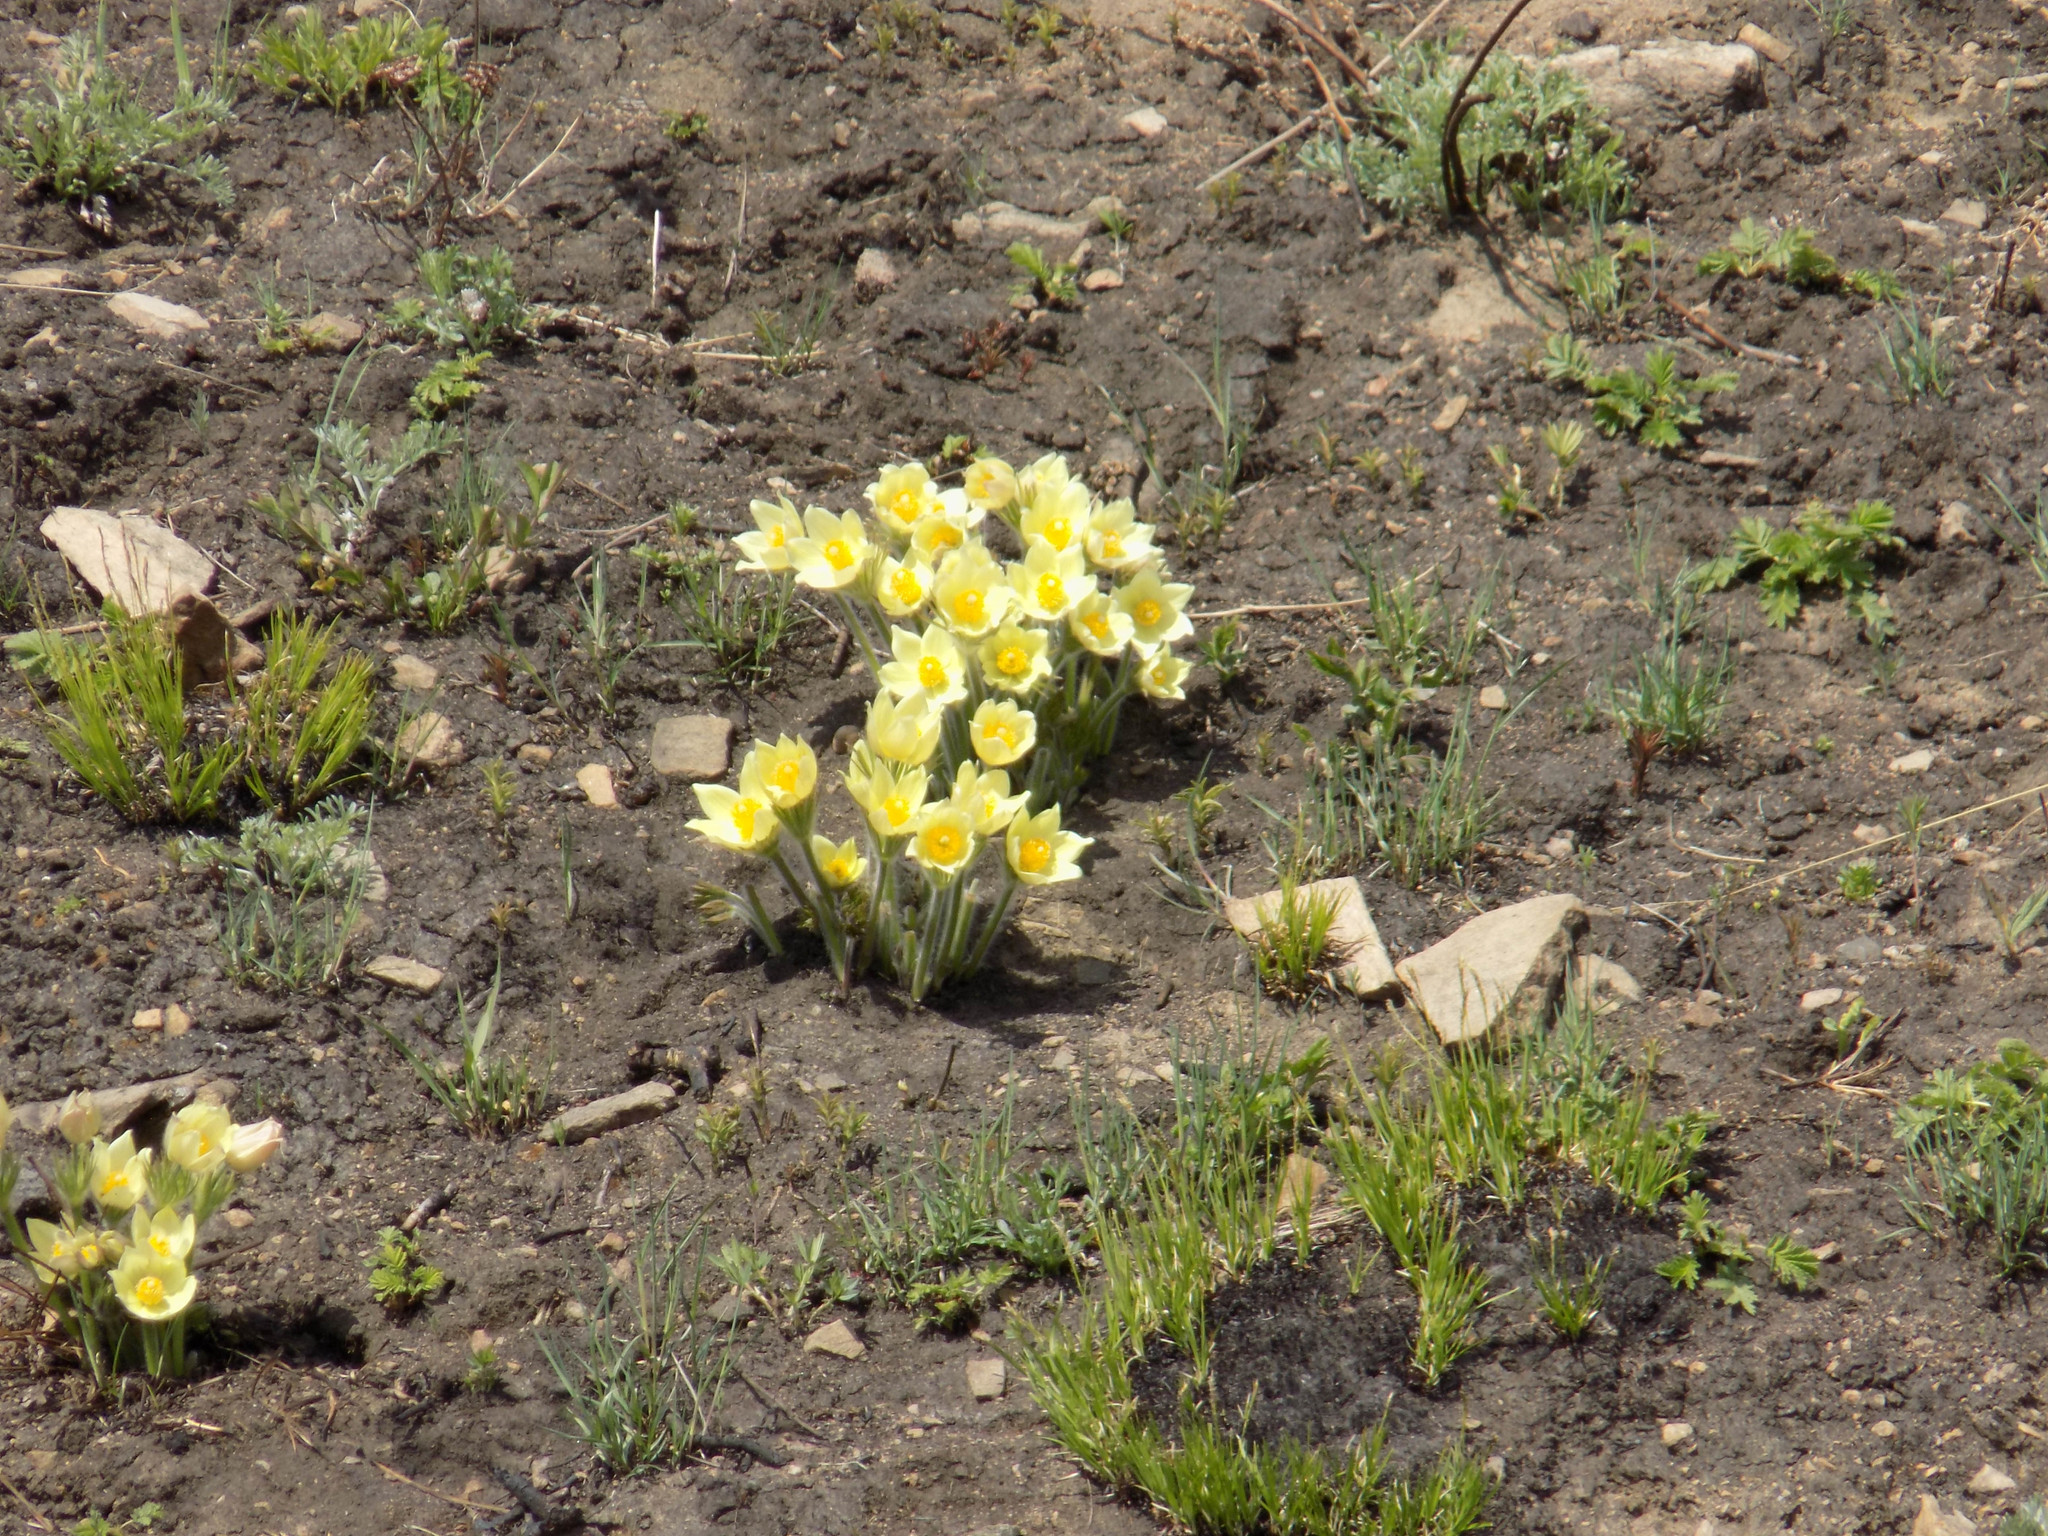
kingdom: Plantae
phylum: Tracheophyta
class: Magnoliopsida
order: Ranunculales
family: Ranunculaceae
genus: Pulsatilla
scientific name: Pulsatilla patens
